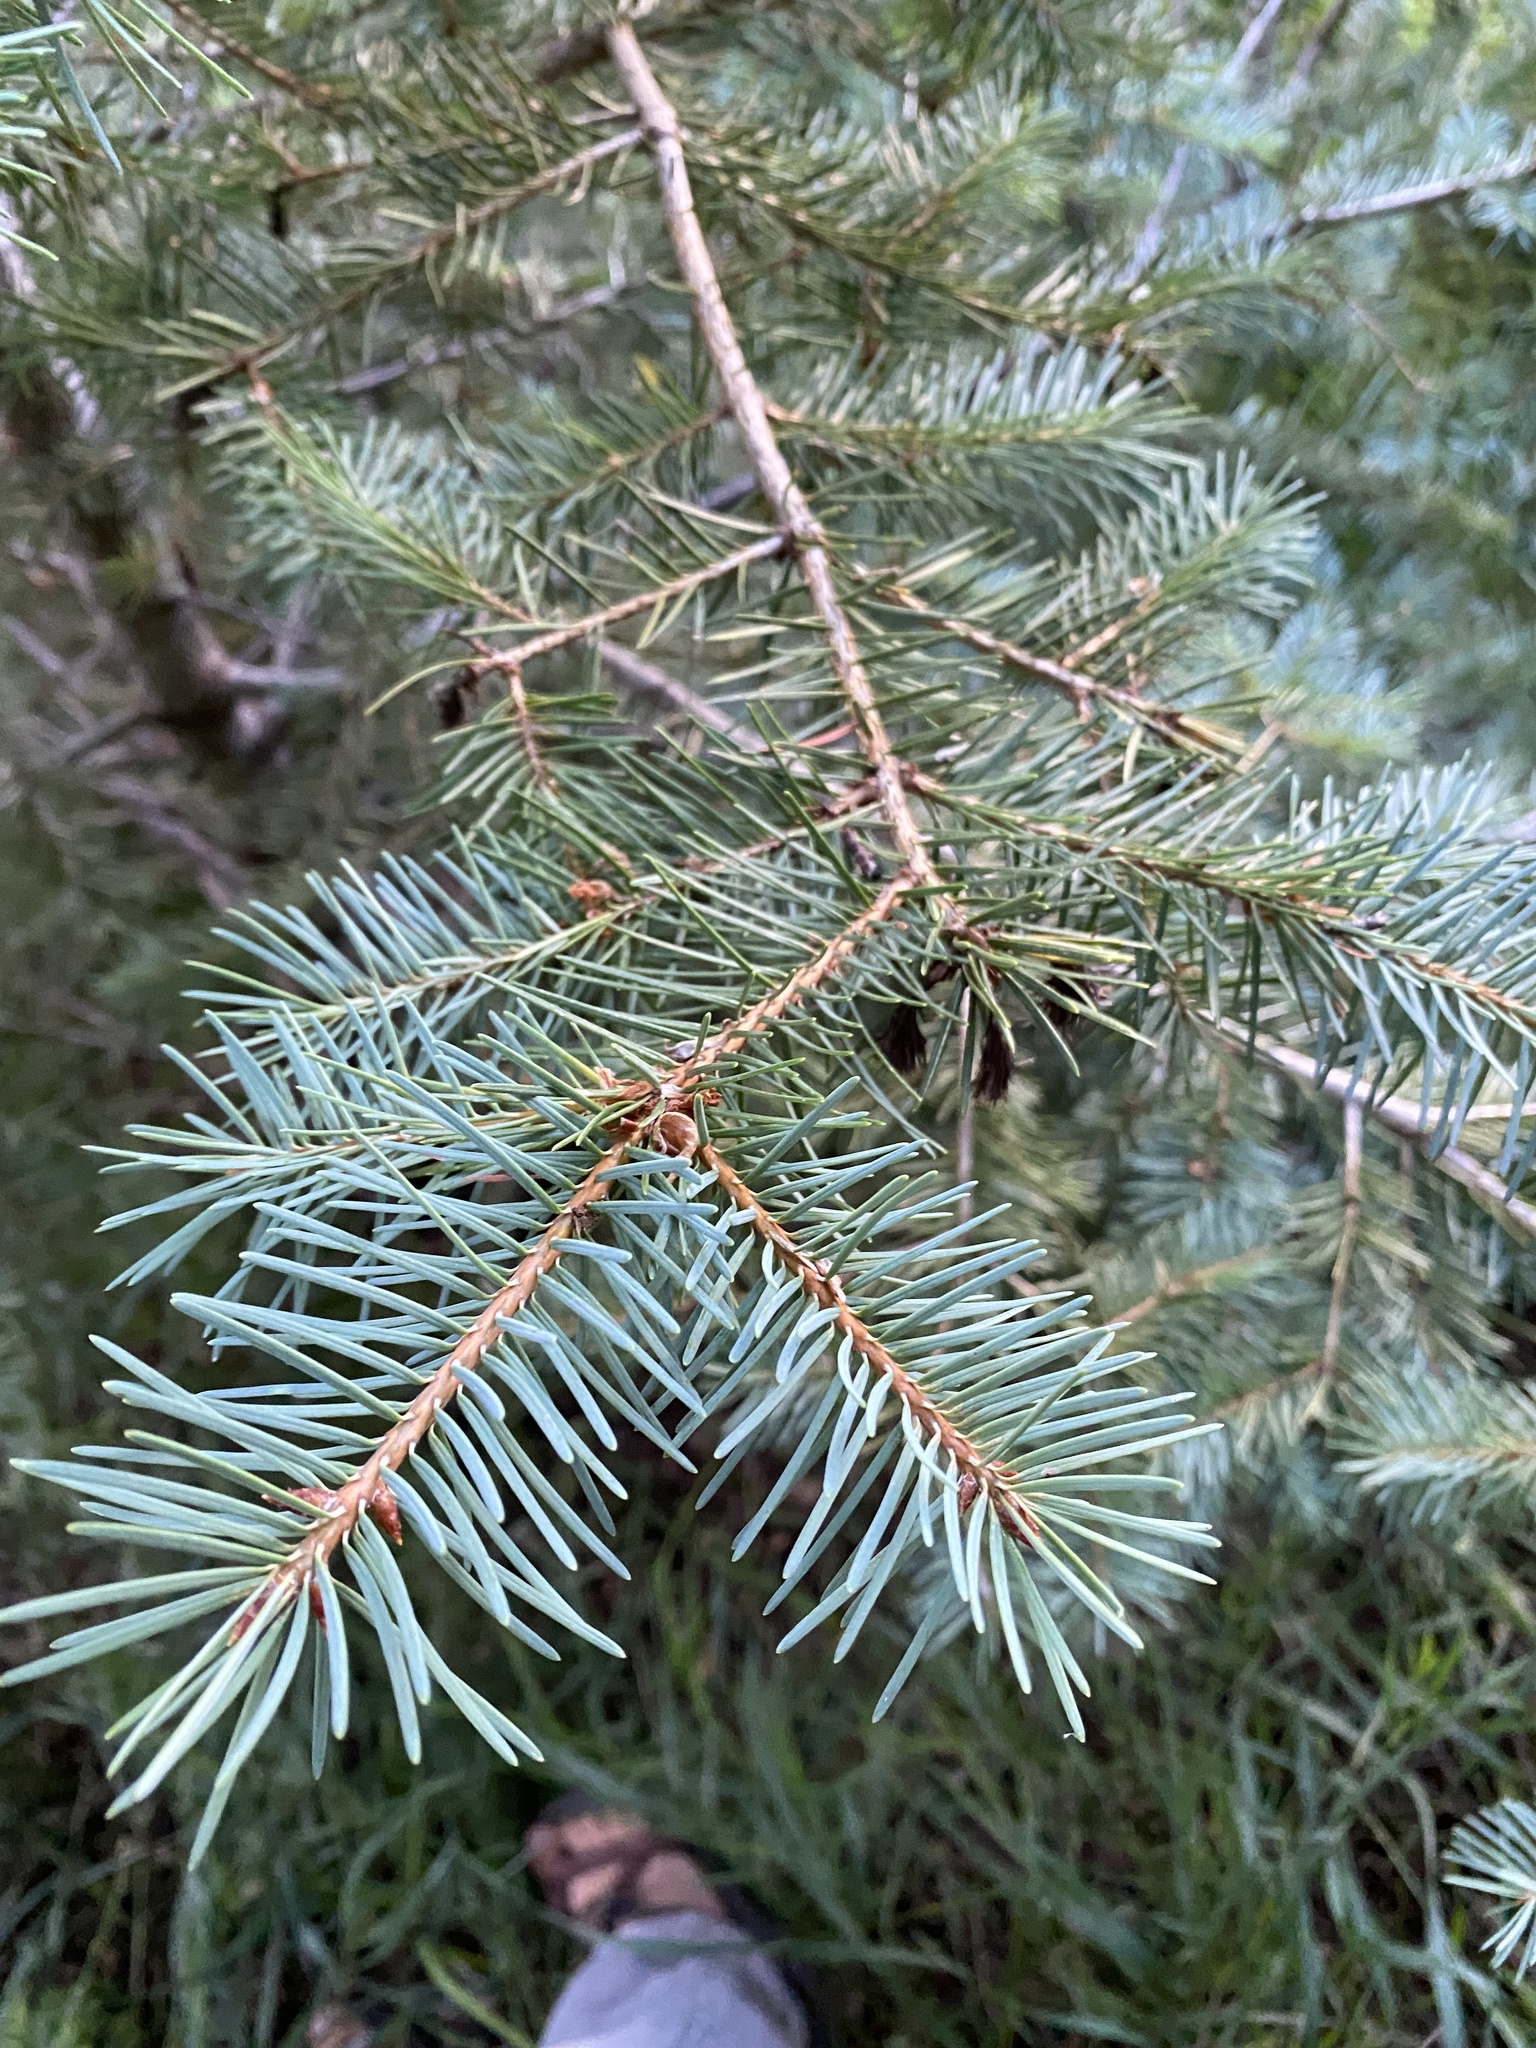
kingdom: Plantae
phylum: Tracheophyta
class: Pinopsida
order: Pinales
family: Pinaceae
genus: Pseudotsuga
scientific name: Pseudotsuga menziesii
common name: Douglas fir
